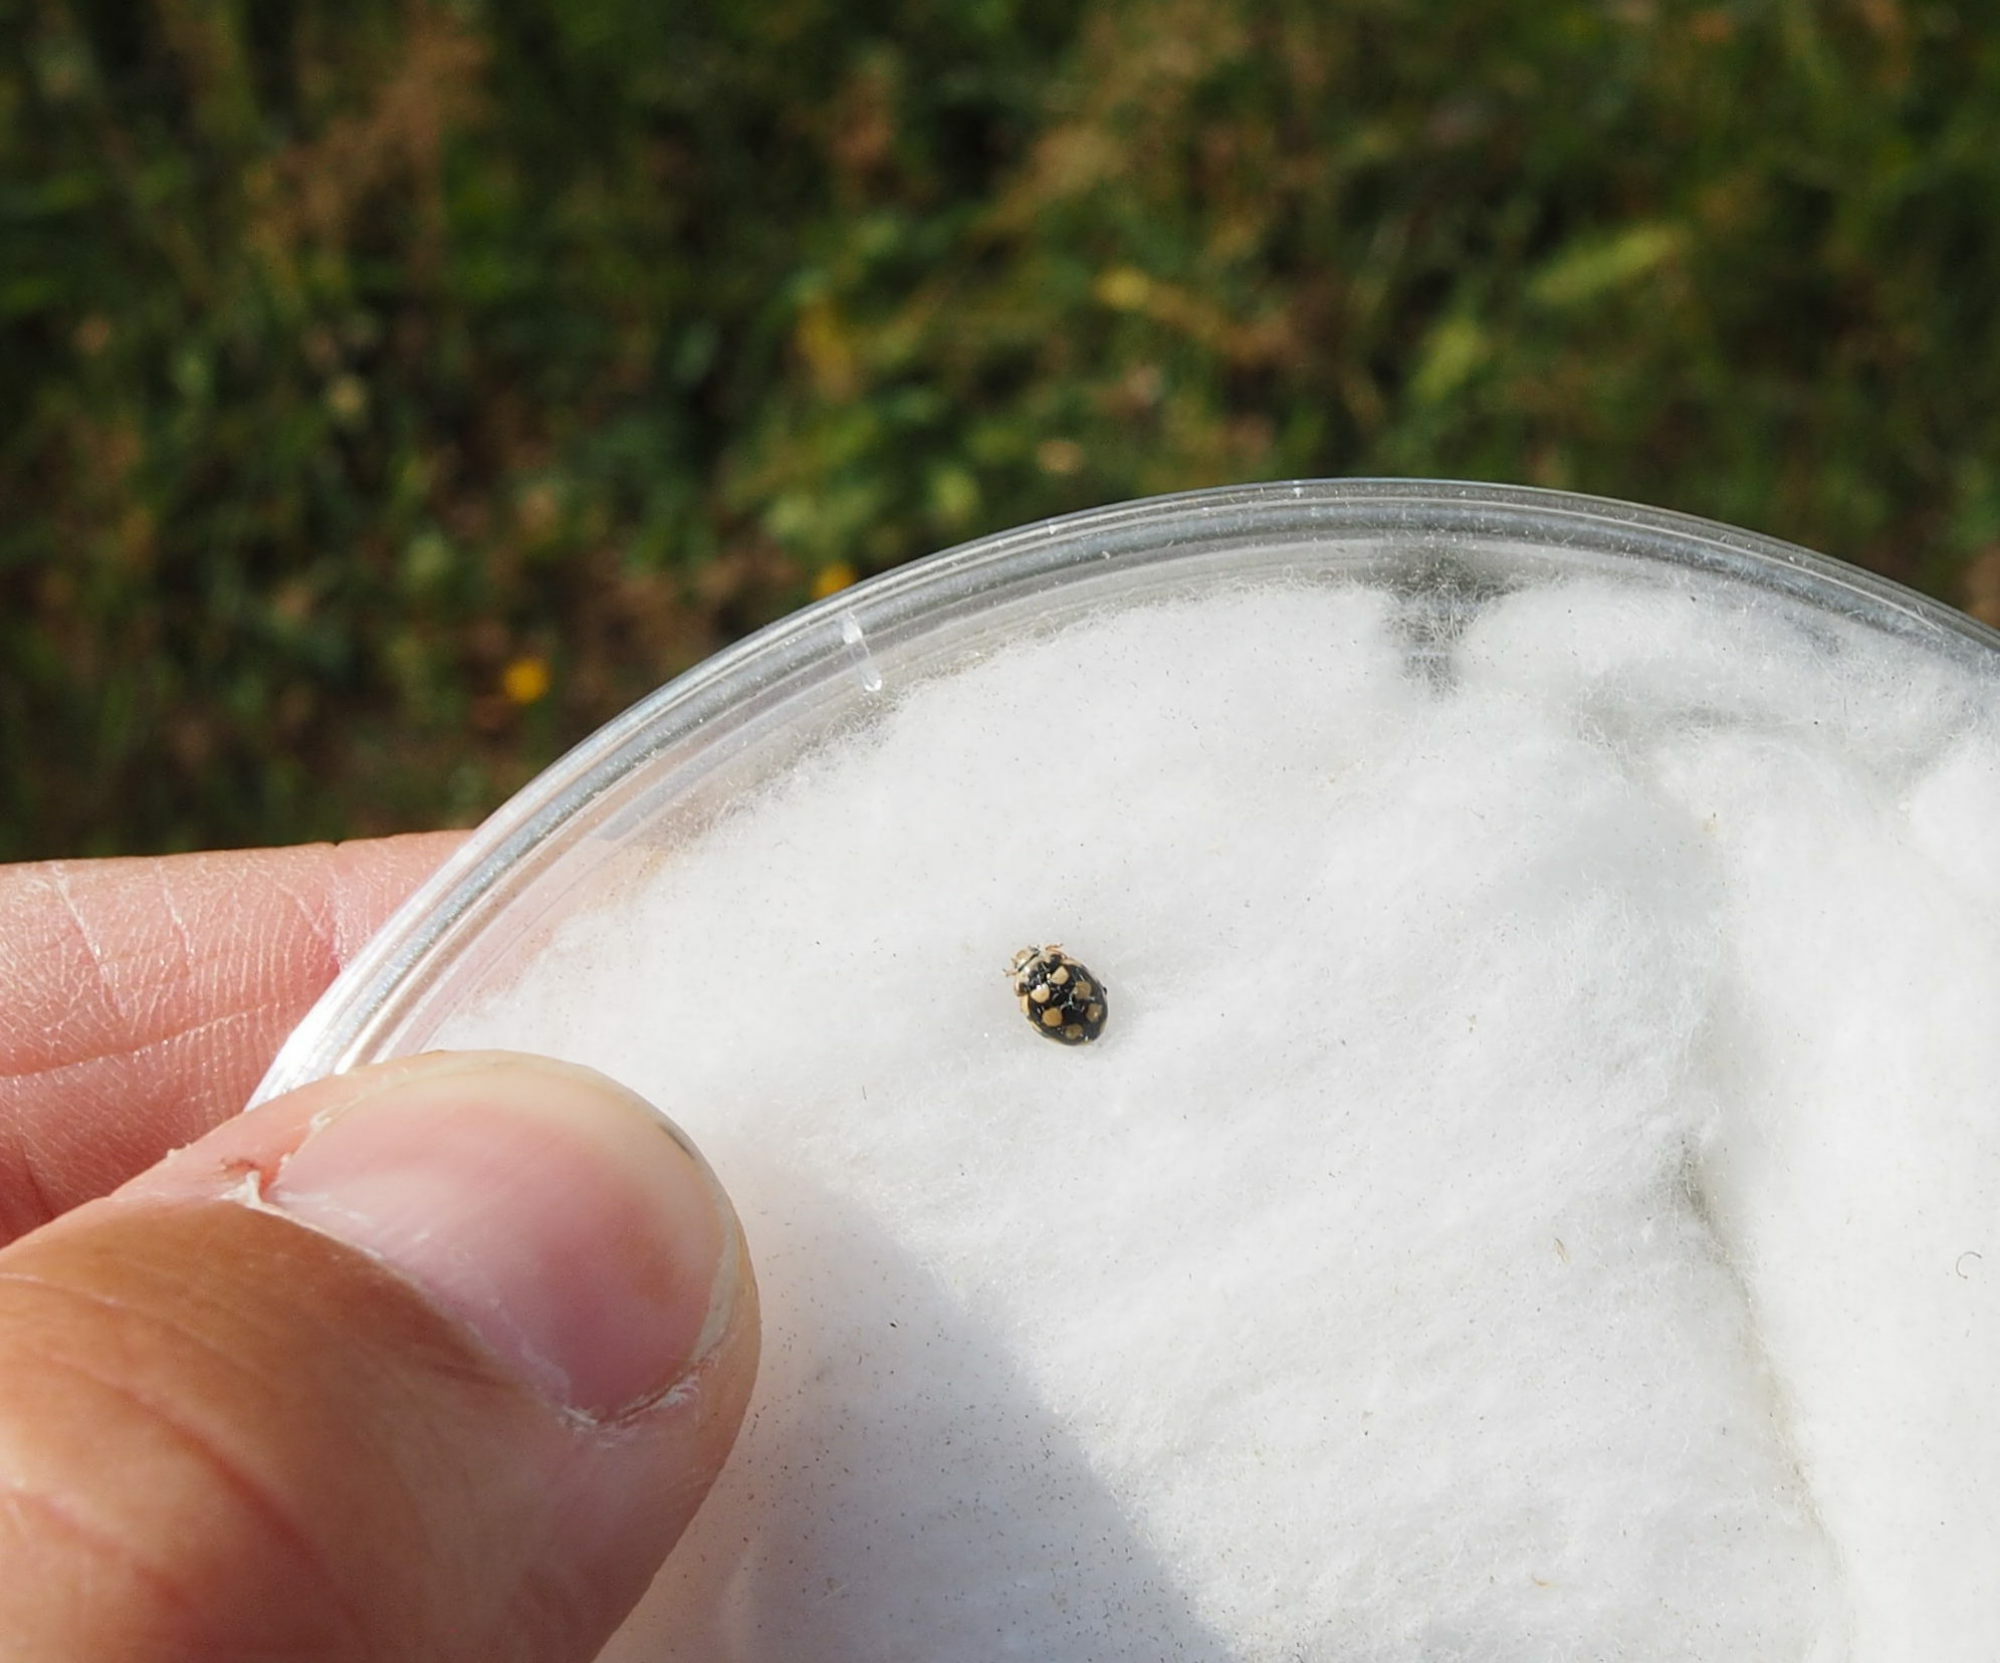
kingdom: Animalia
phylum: Arthropoda
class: Insecta
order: Coleoptera
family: Coccinellidae
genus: Coccinula
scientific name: Coccinula quatuordecimpustulata
